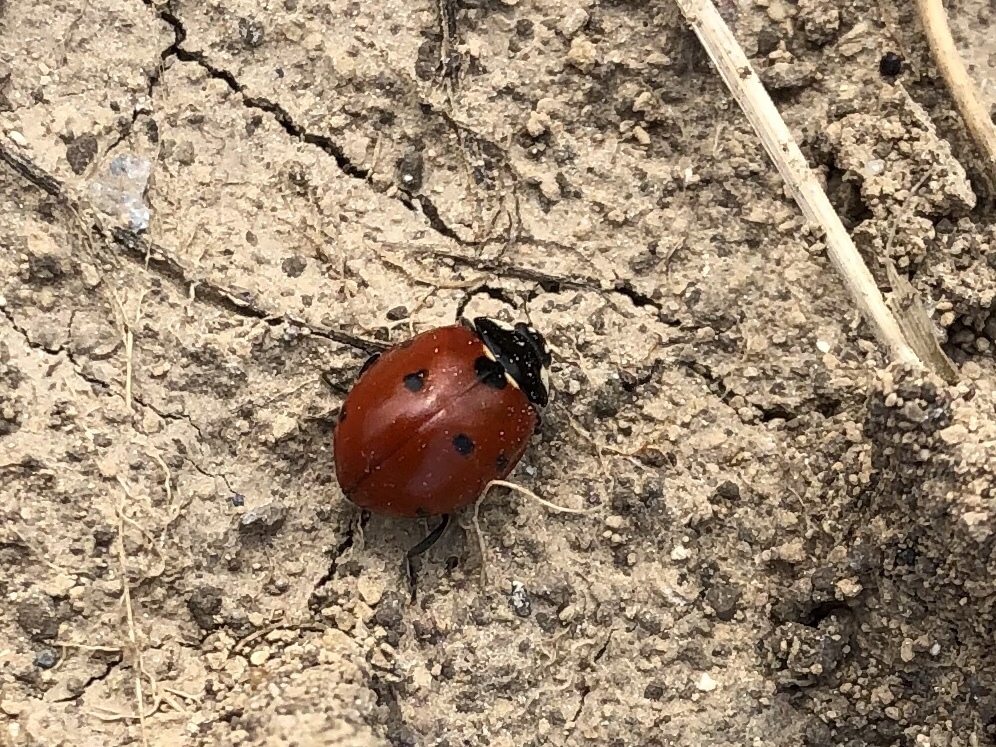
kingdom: Animalia
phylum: Arthropoda
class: Insecta
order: Coleoptera
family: Coccinellidae
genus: Coccinella
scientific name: Coccinella septempunctata
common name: Sevenspotted lady beetle
